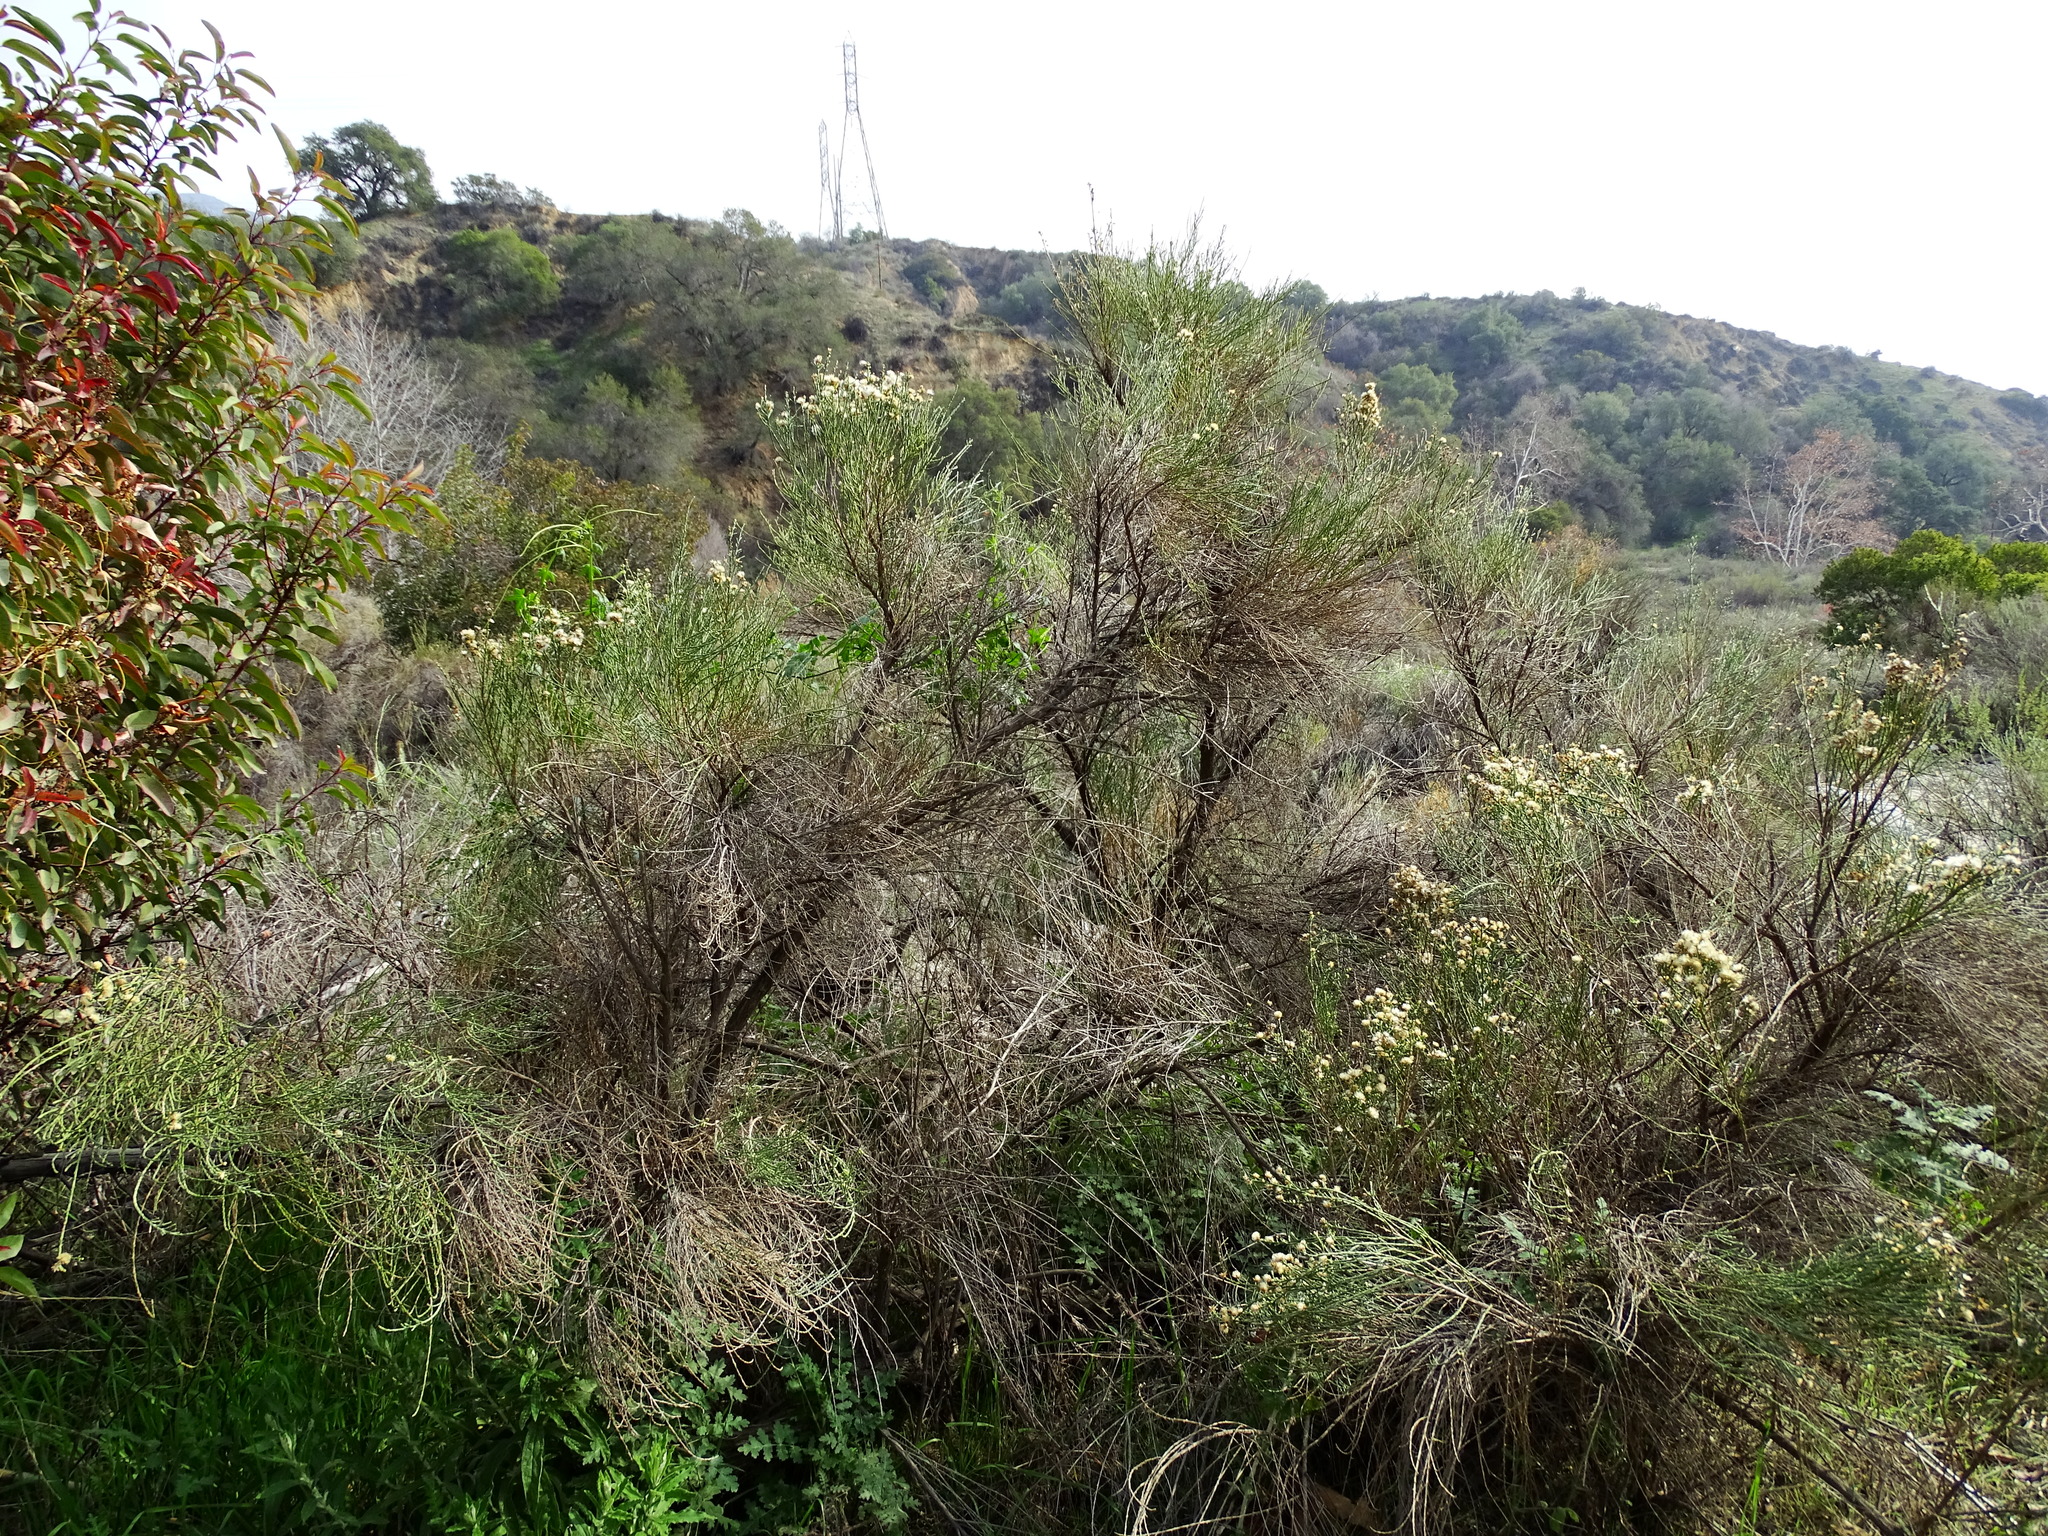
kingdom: Plantae
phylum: Tracheophyta
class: Magnoliopsida
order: Asterales
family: Asteraceae
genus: Lepidospartum
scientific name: Lepidospartum squamatum
